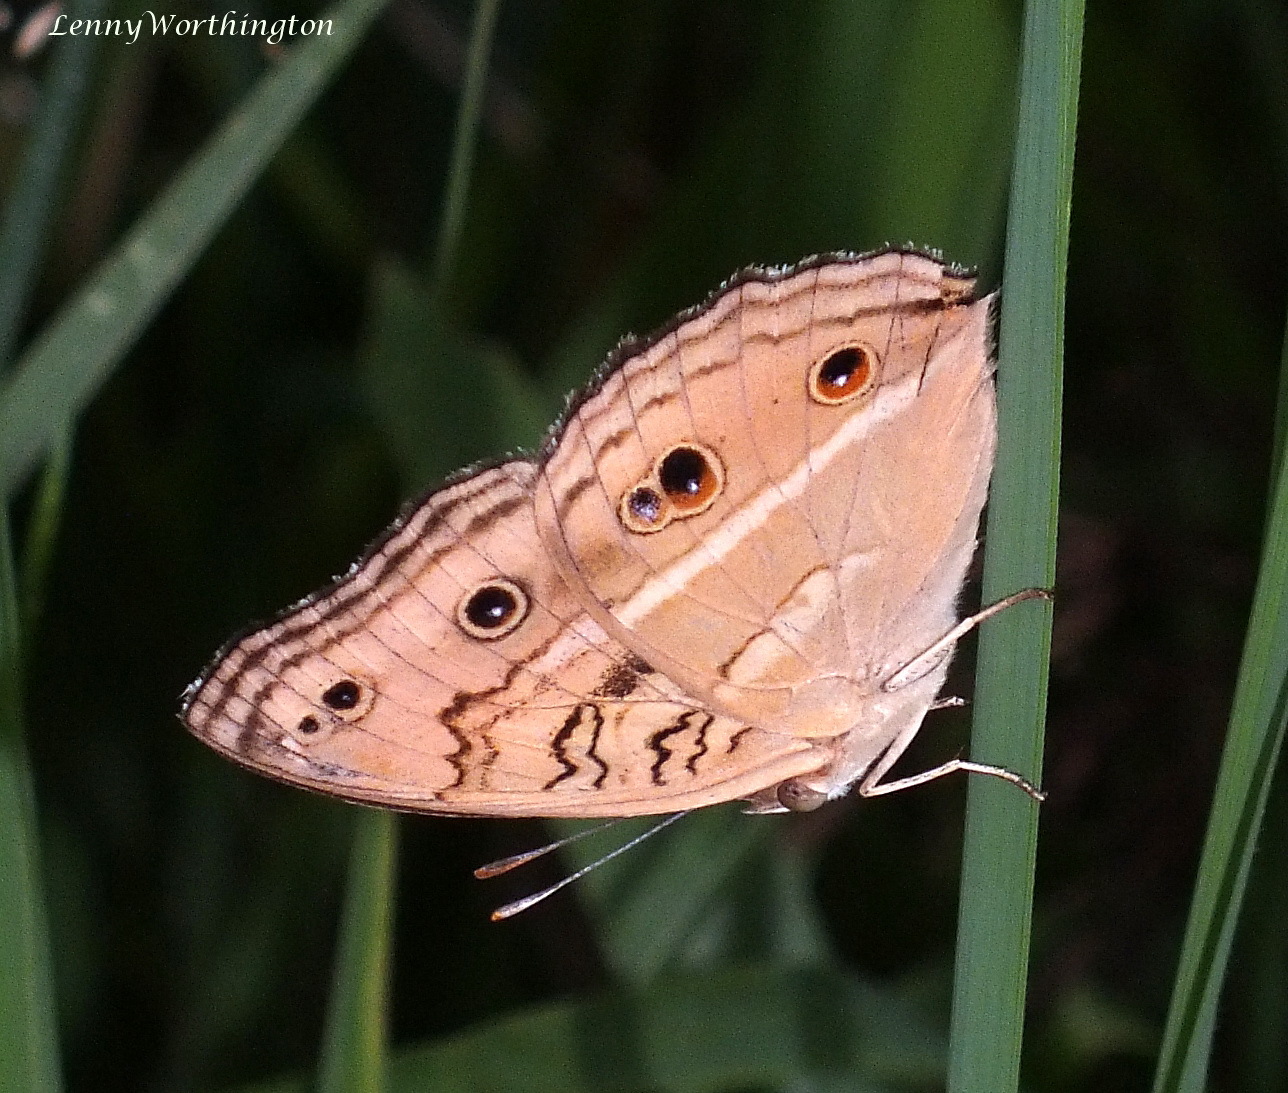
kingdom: Animalia
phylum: Arthropoda
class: Insecta
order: Lepidoptera
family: Nymphalidae
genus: Junonia
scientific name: Junonia almana
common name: Peacock pansy
